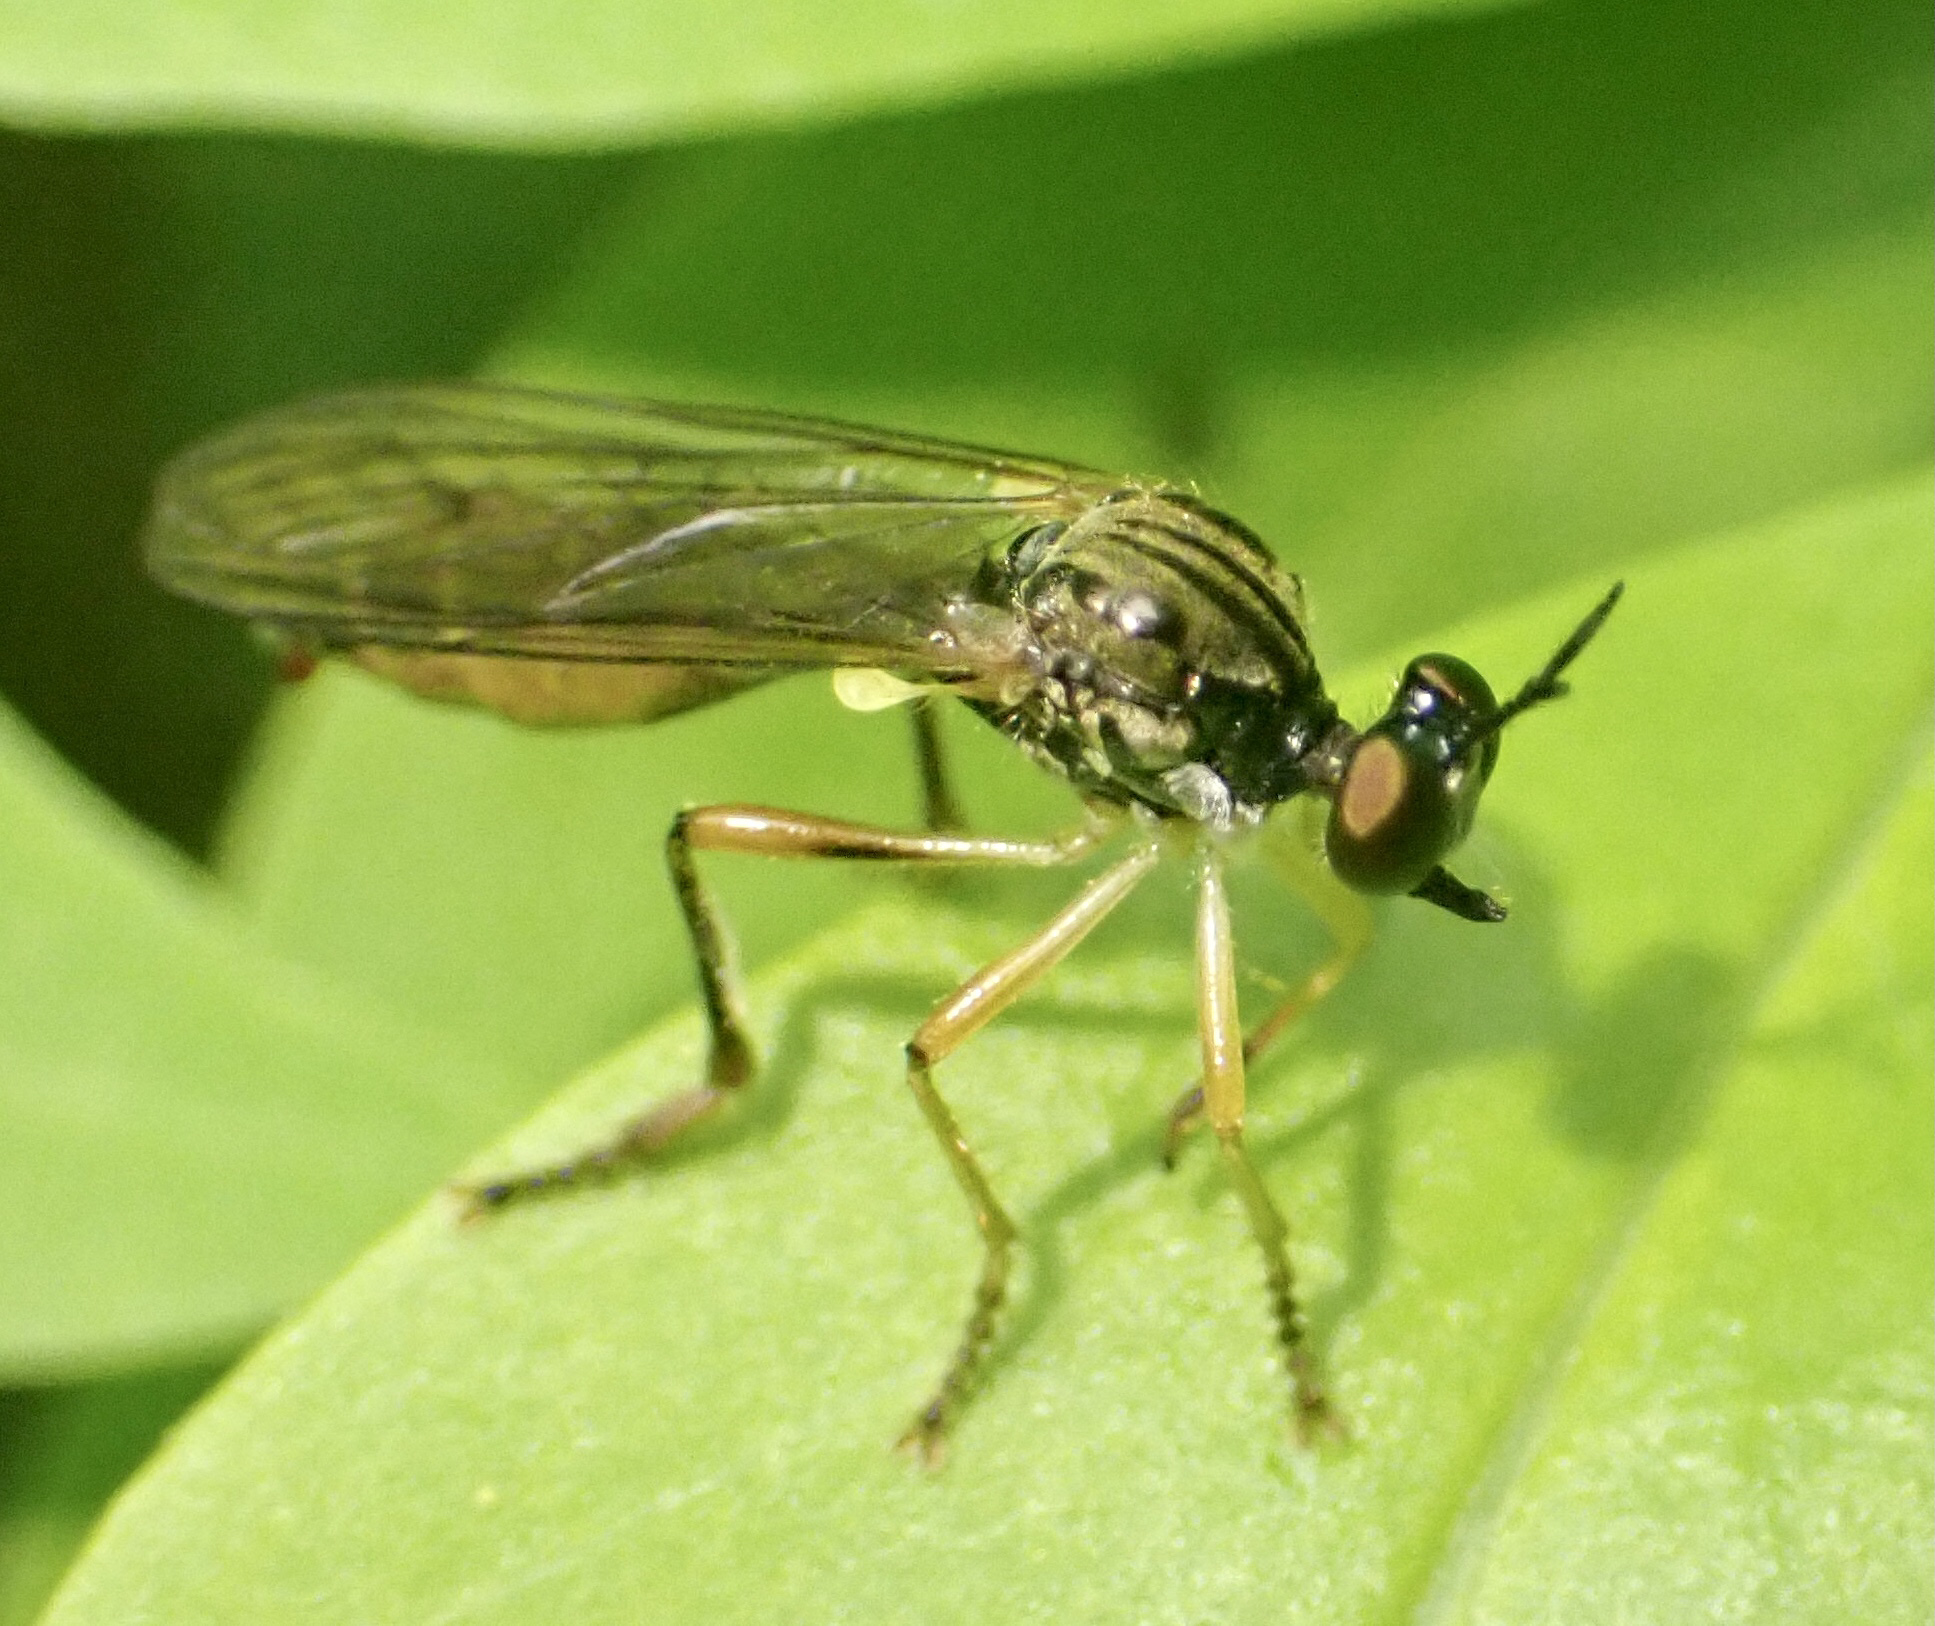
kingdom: Animalia
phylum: Arthropoda
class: Insecta
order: Diptera
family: Asilidae
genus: Dioctria
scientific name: Dioctria linearis
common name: Small yellow-legged robberfly
